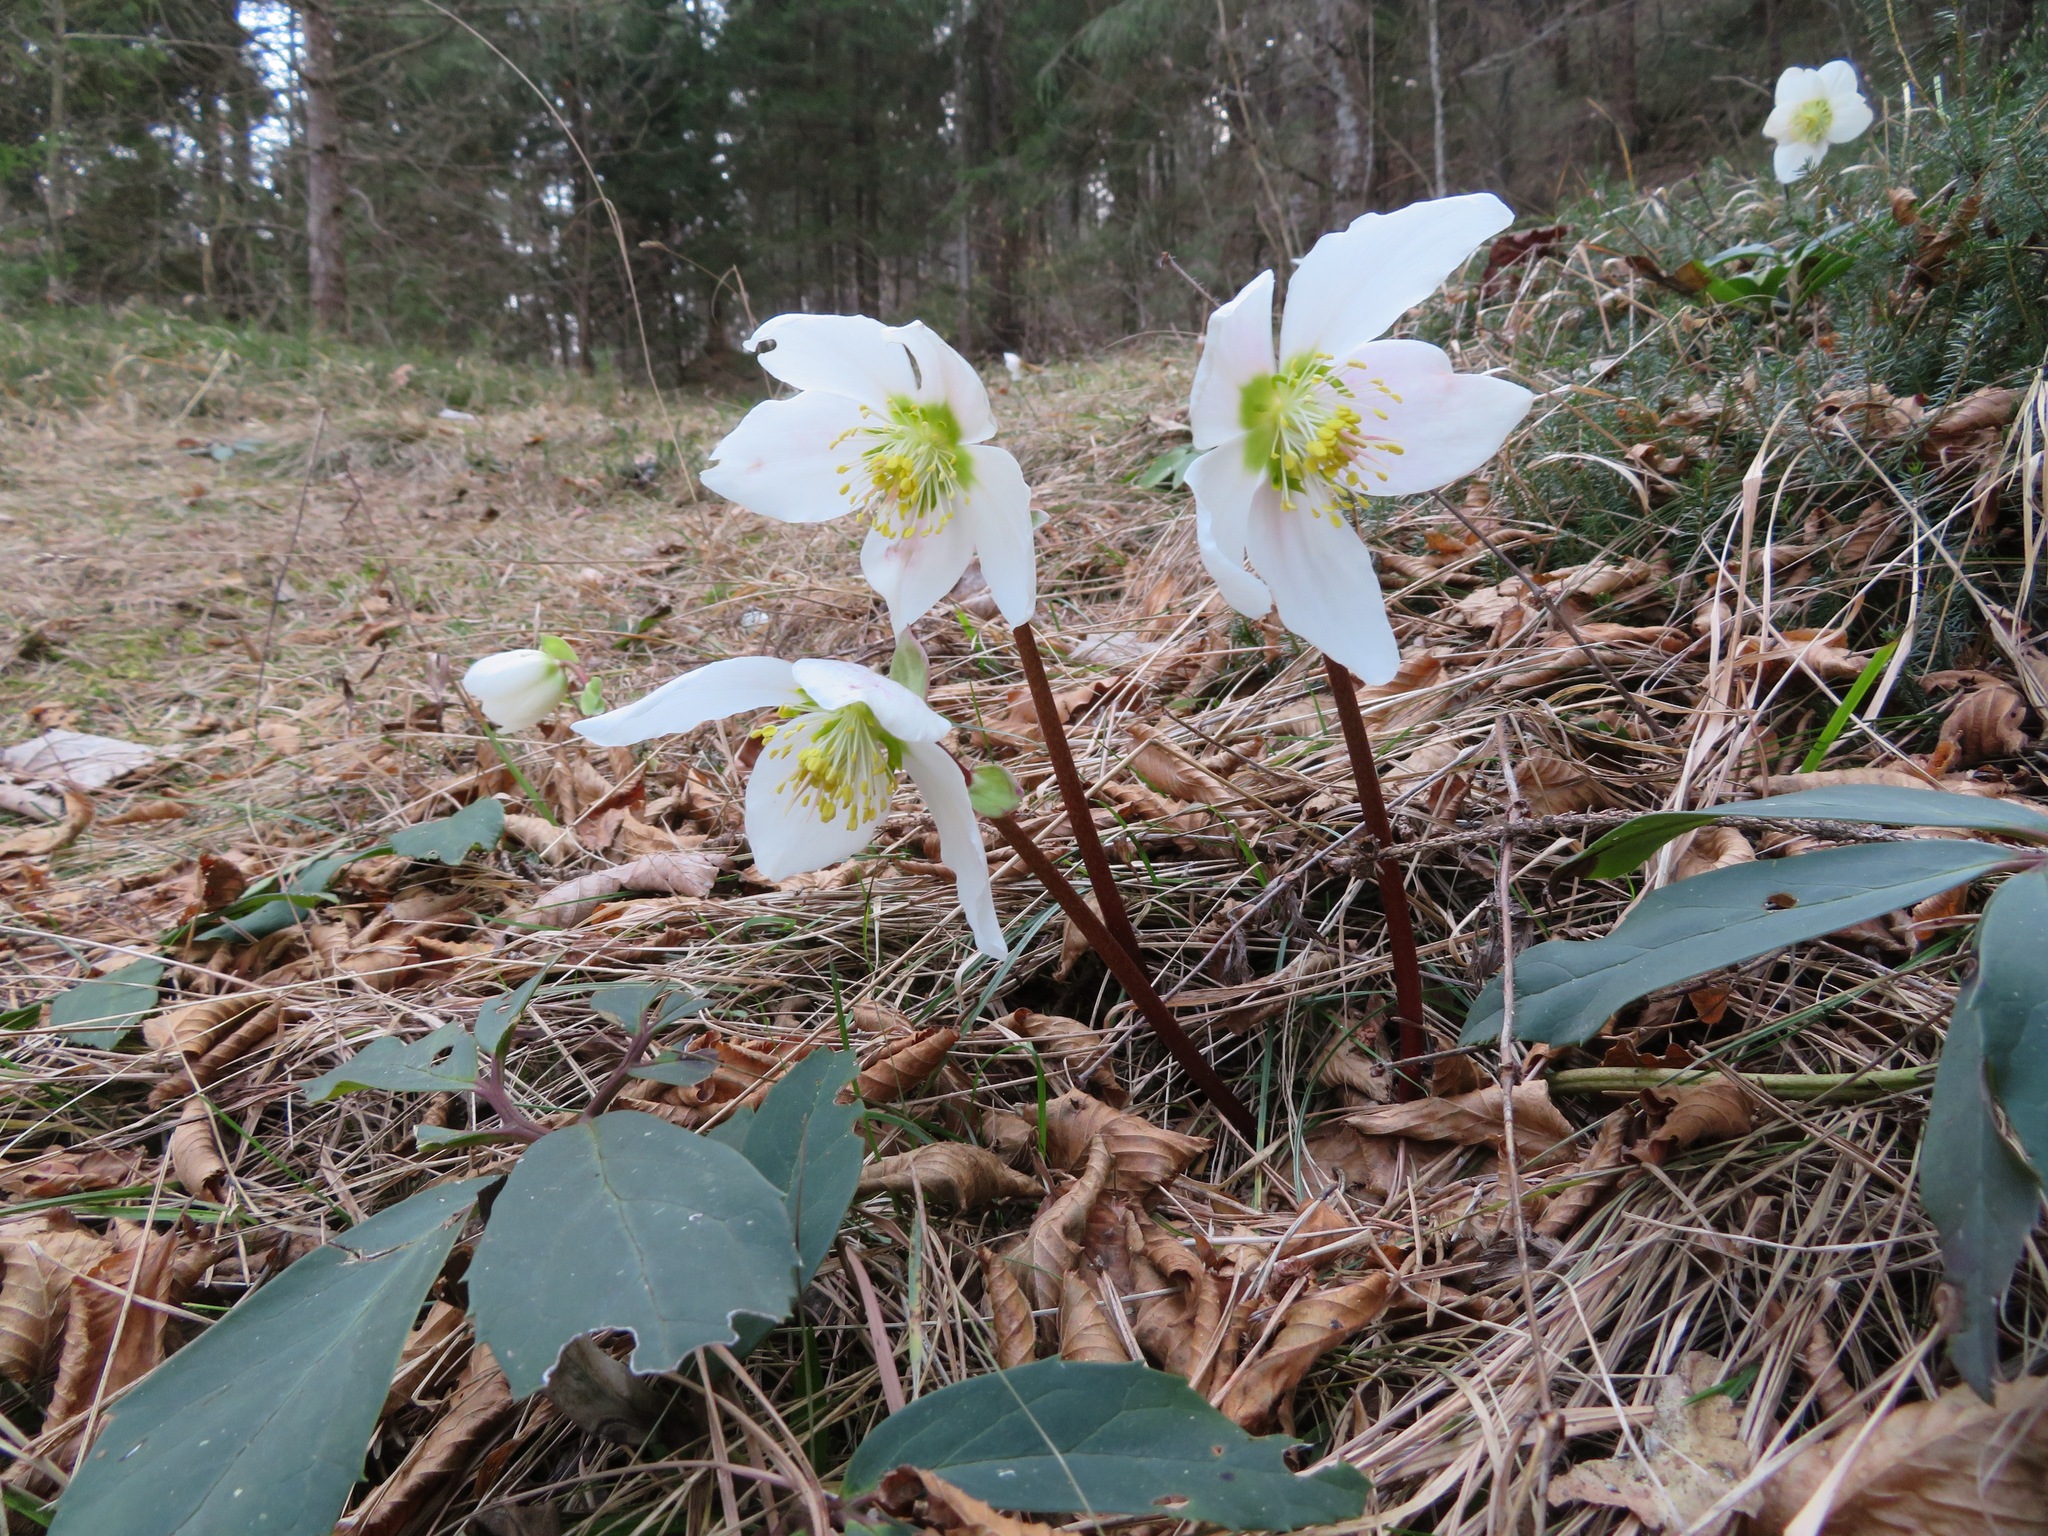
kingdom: Plantae
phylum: Tracheophyta
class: Magnoliopsida
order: Ranunculales
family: Ranunculaceae
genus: Helleborus
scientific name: Helleborus niger
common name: Black hellebore
